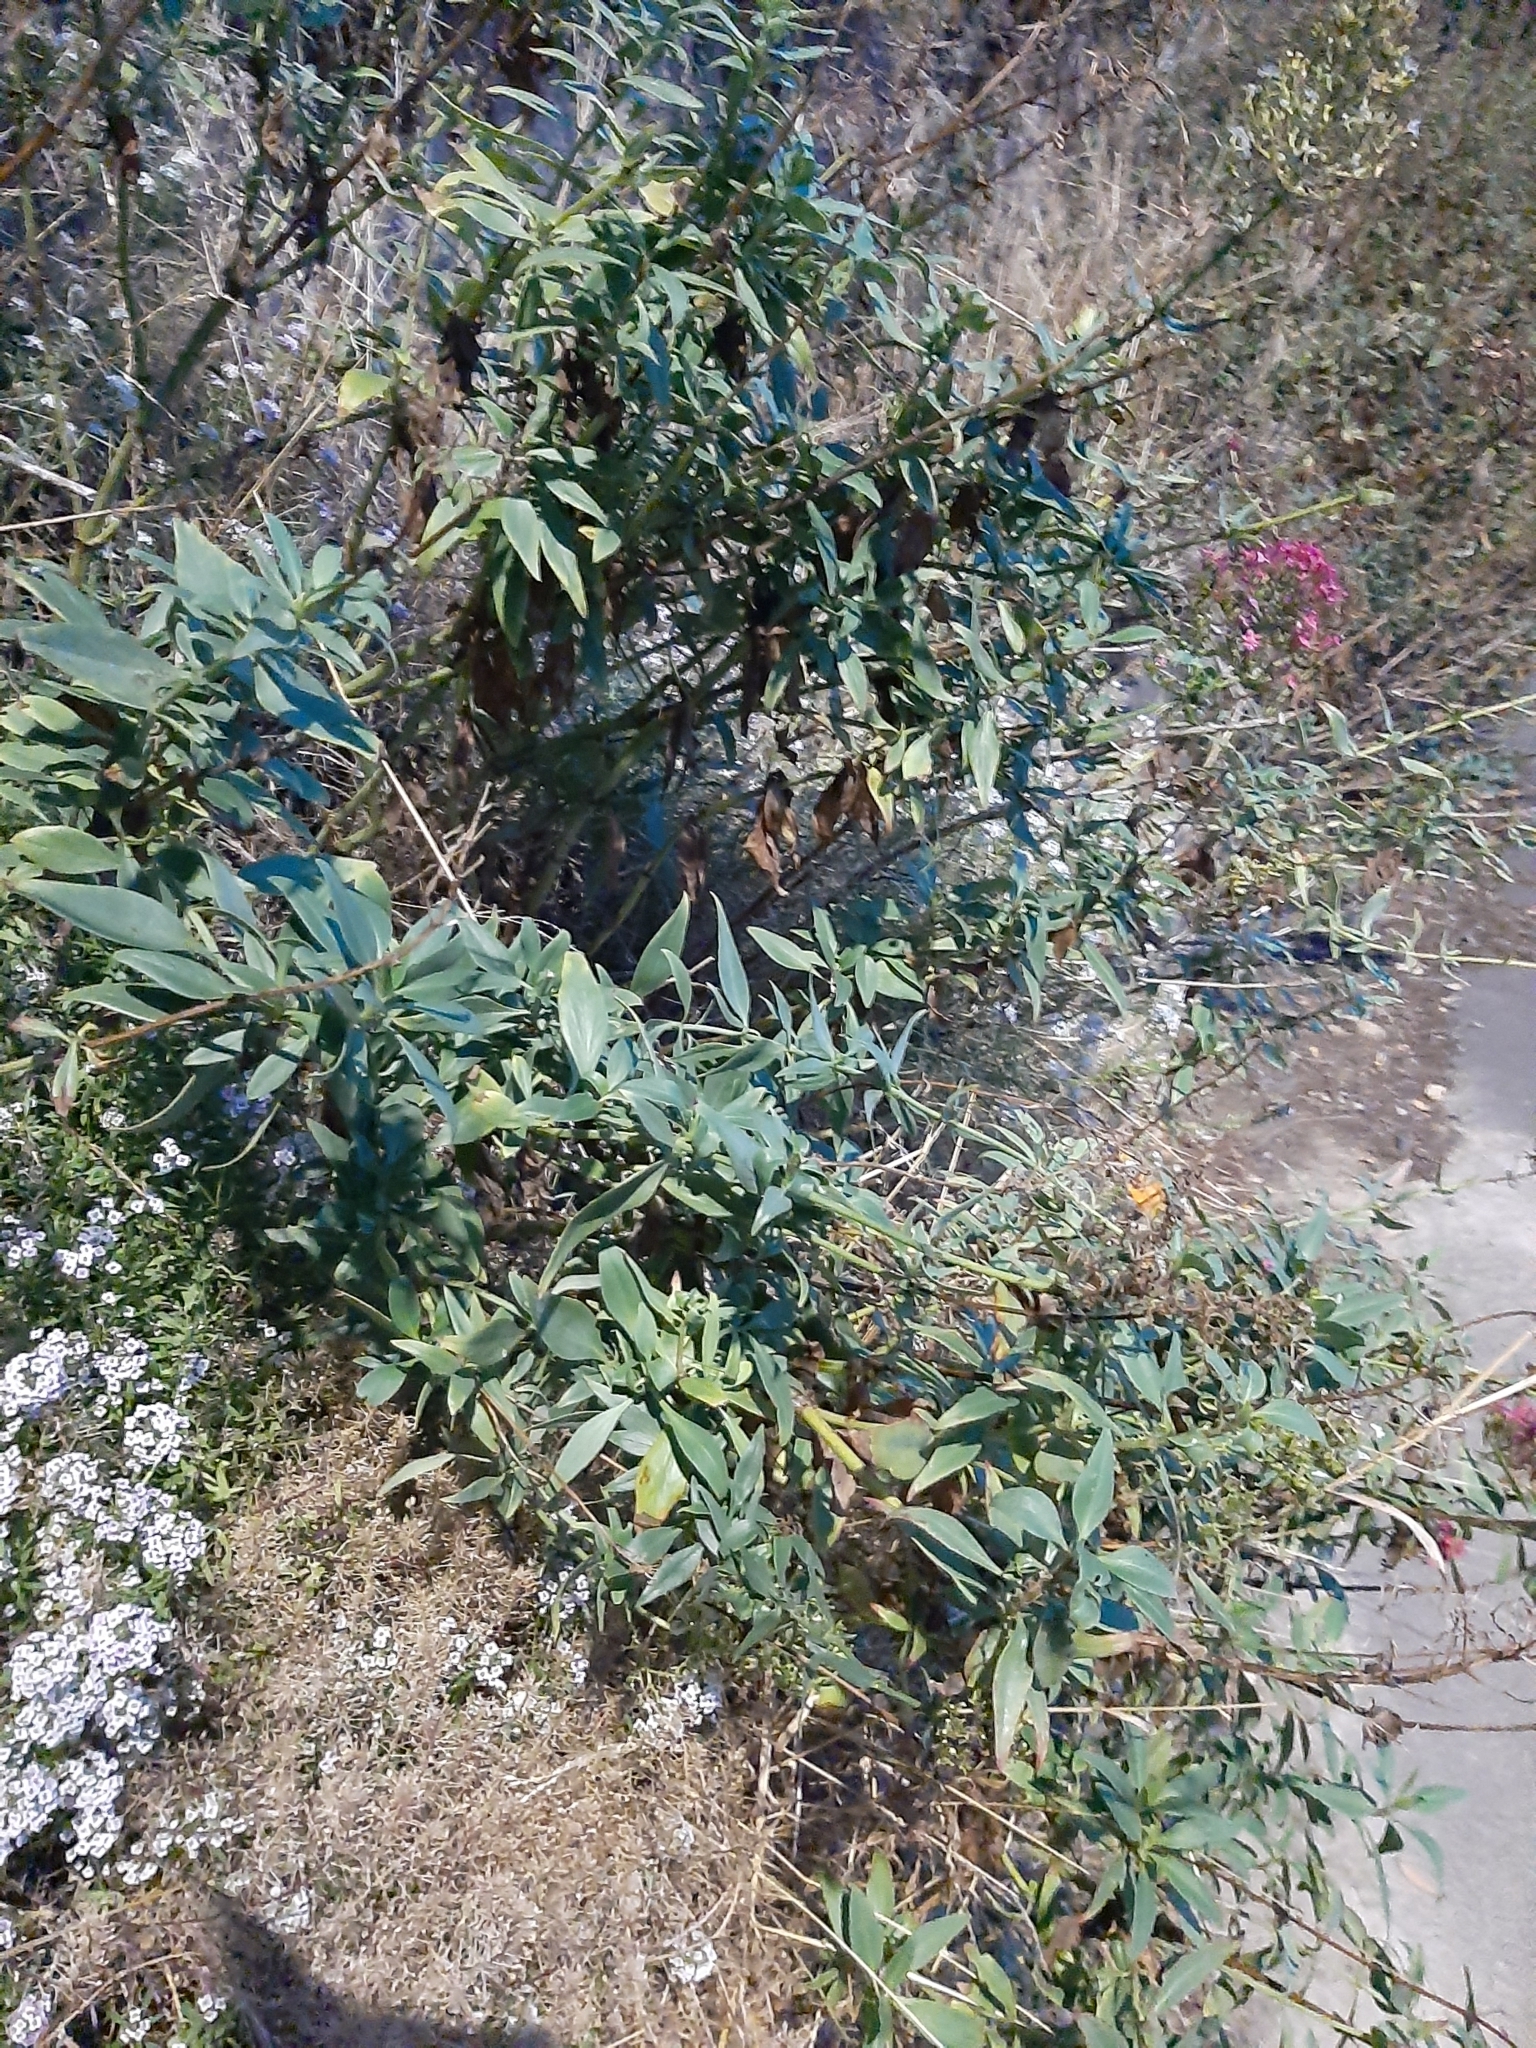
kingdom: Plantae
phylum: Tracheophyta
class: Magnoliopsida
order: Dipsacales
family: Caprifoliaceae
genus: Centranthus
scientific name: Centranthus ruber
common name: Red valerian
